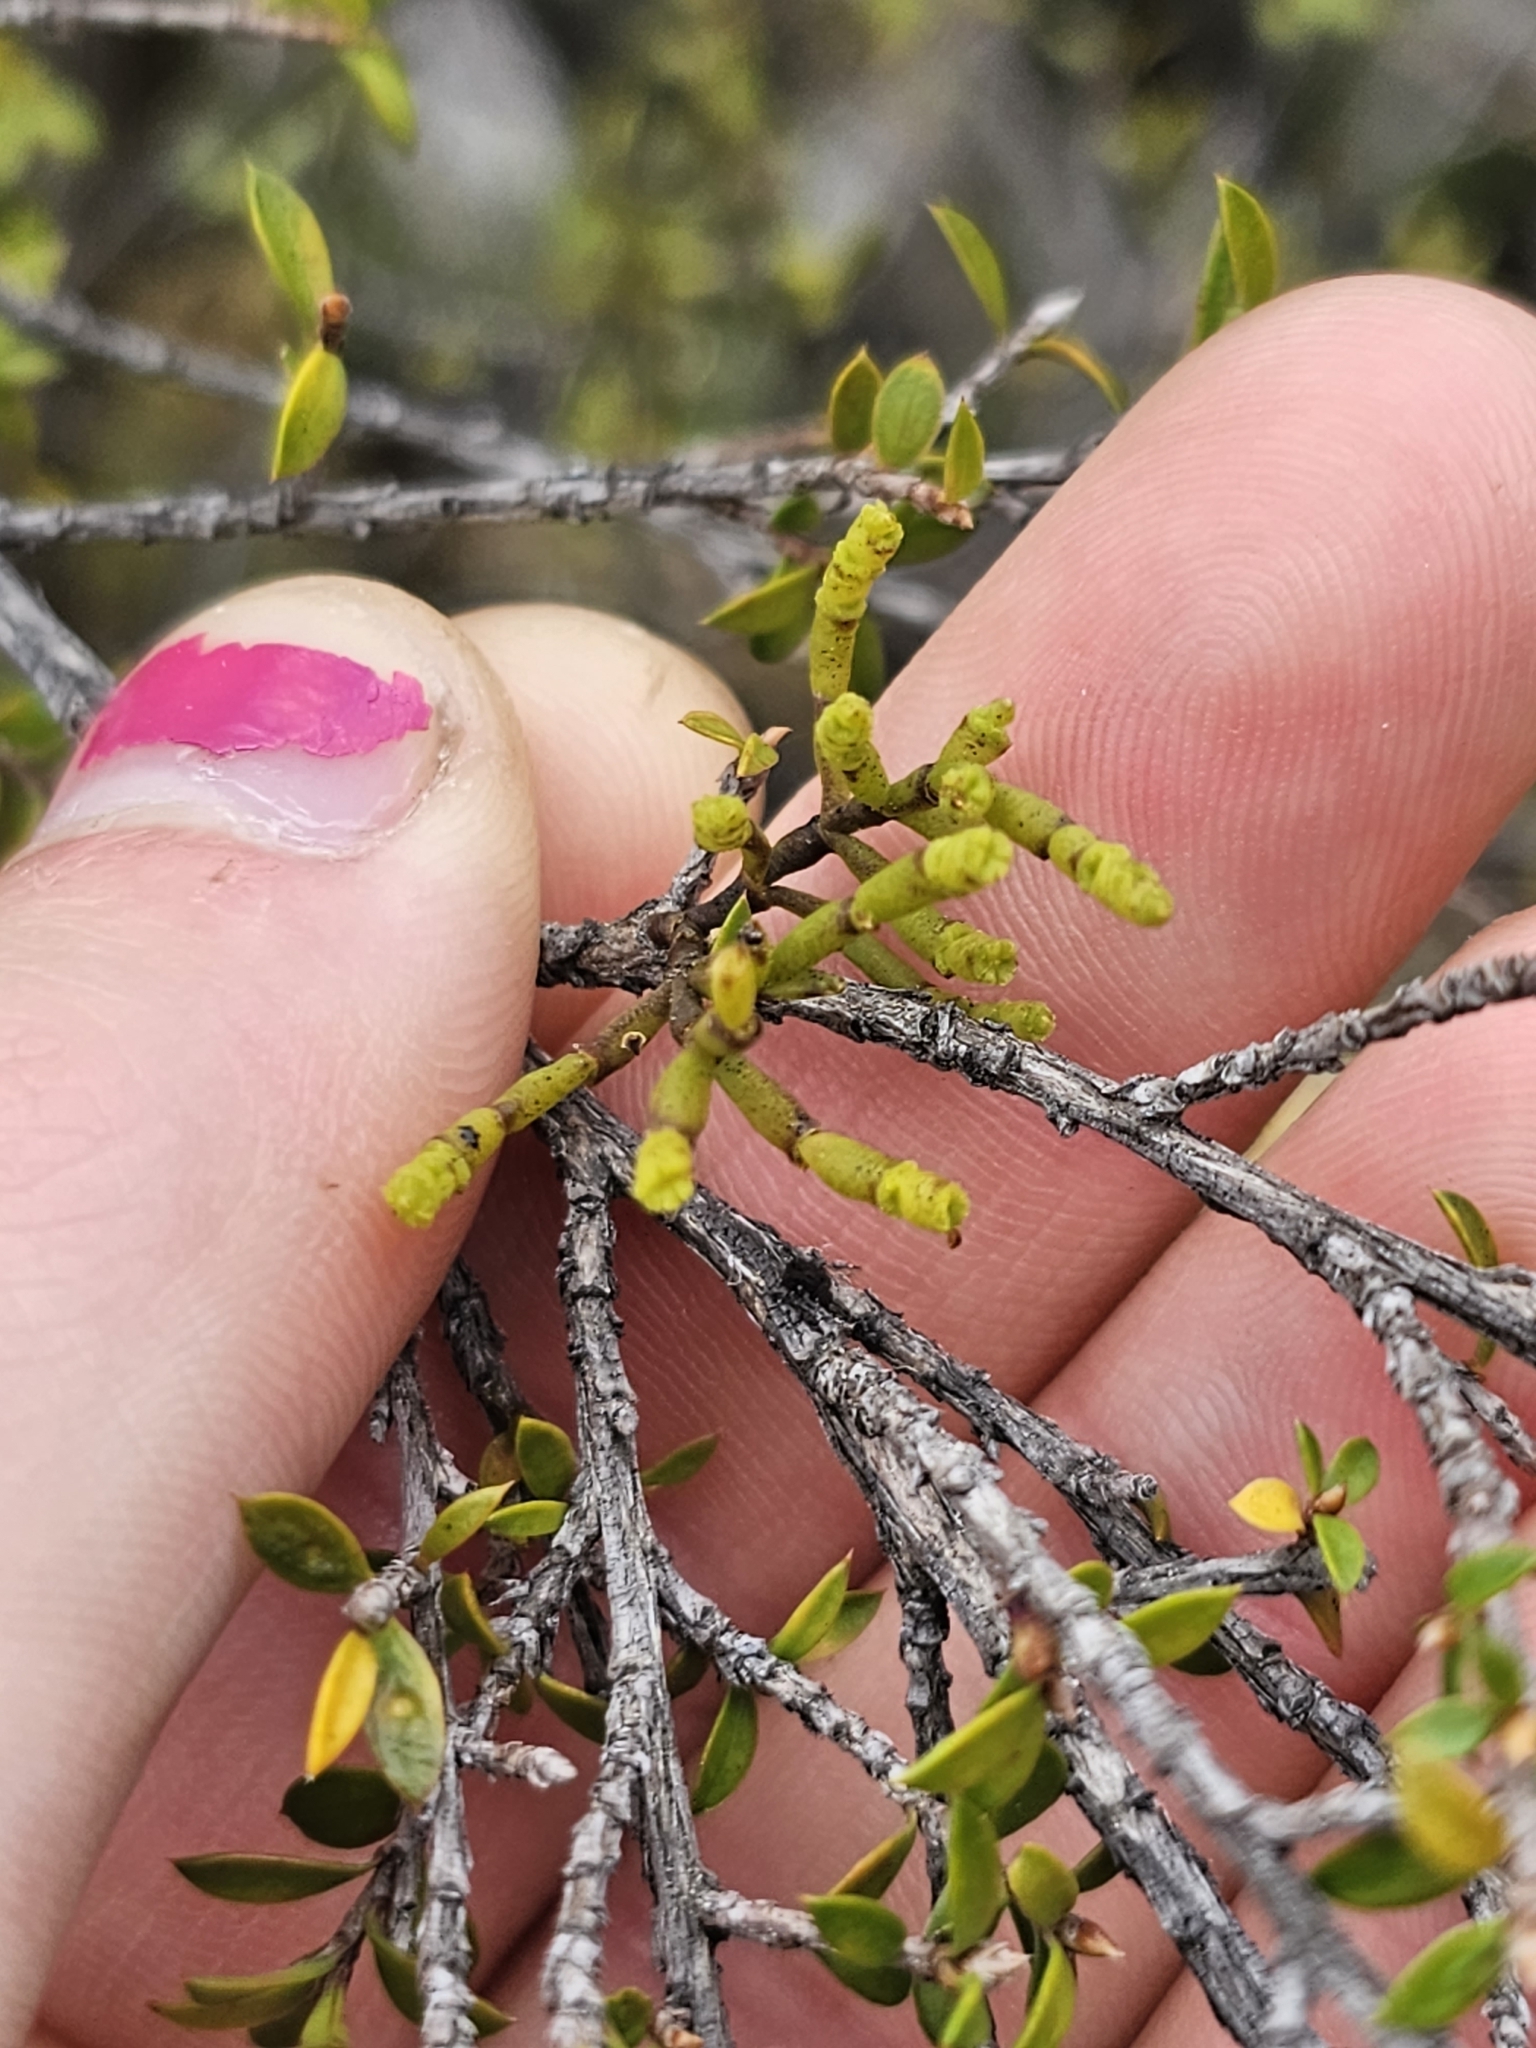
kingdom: Plantae
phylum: Tracheophyta
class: Magnoliopsida
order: Santalales
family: Viscaceae
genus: Korthalsella
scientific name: Korthalsella salicornioides
